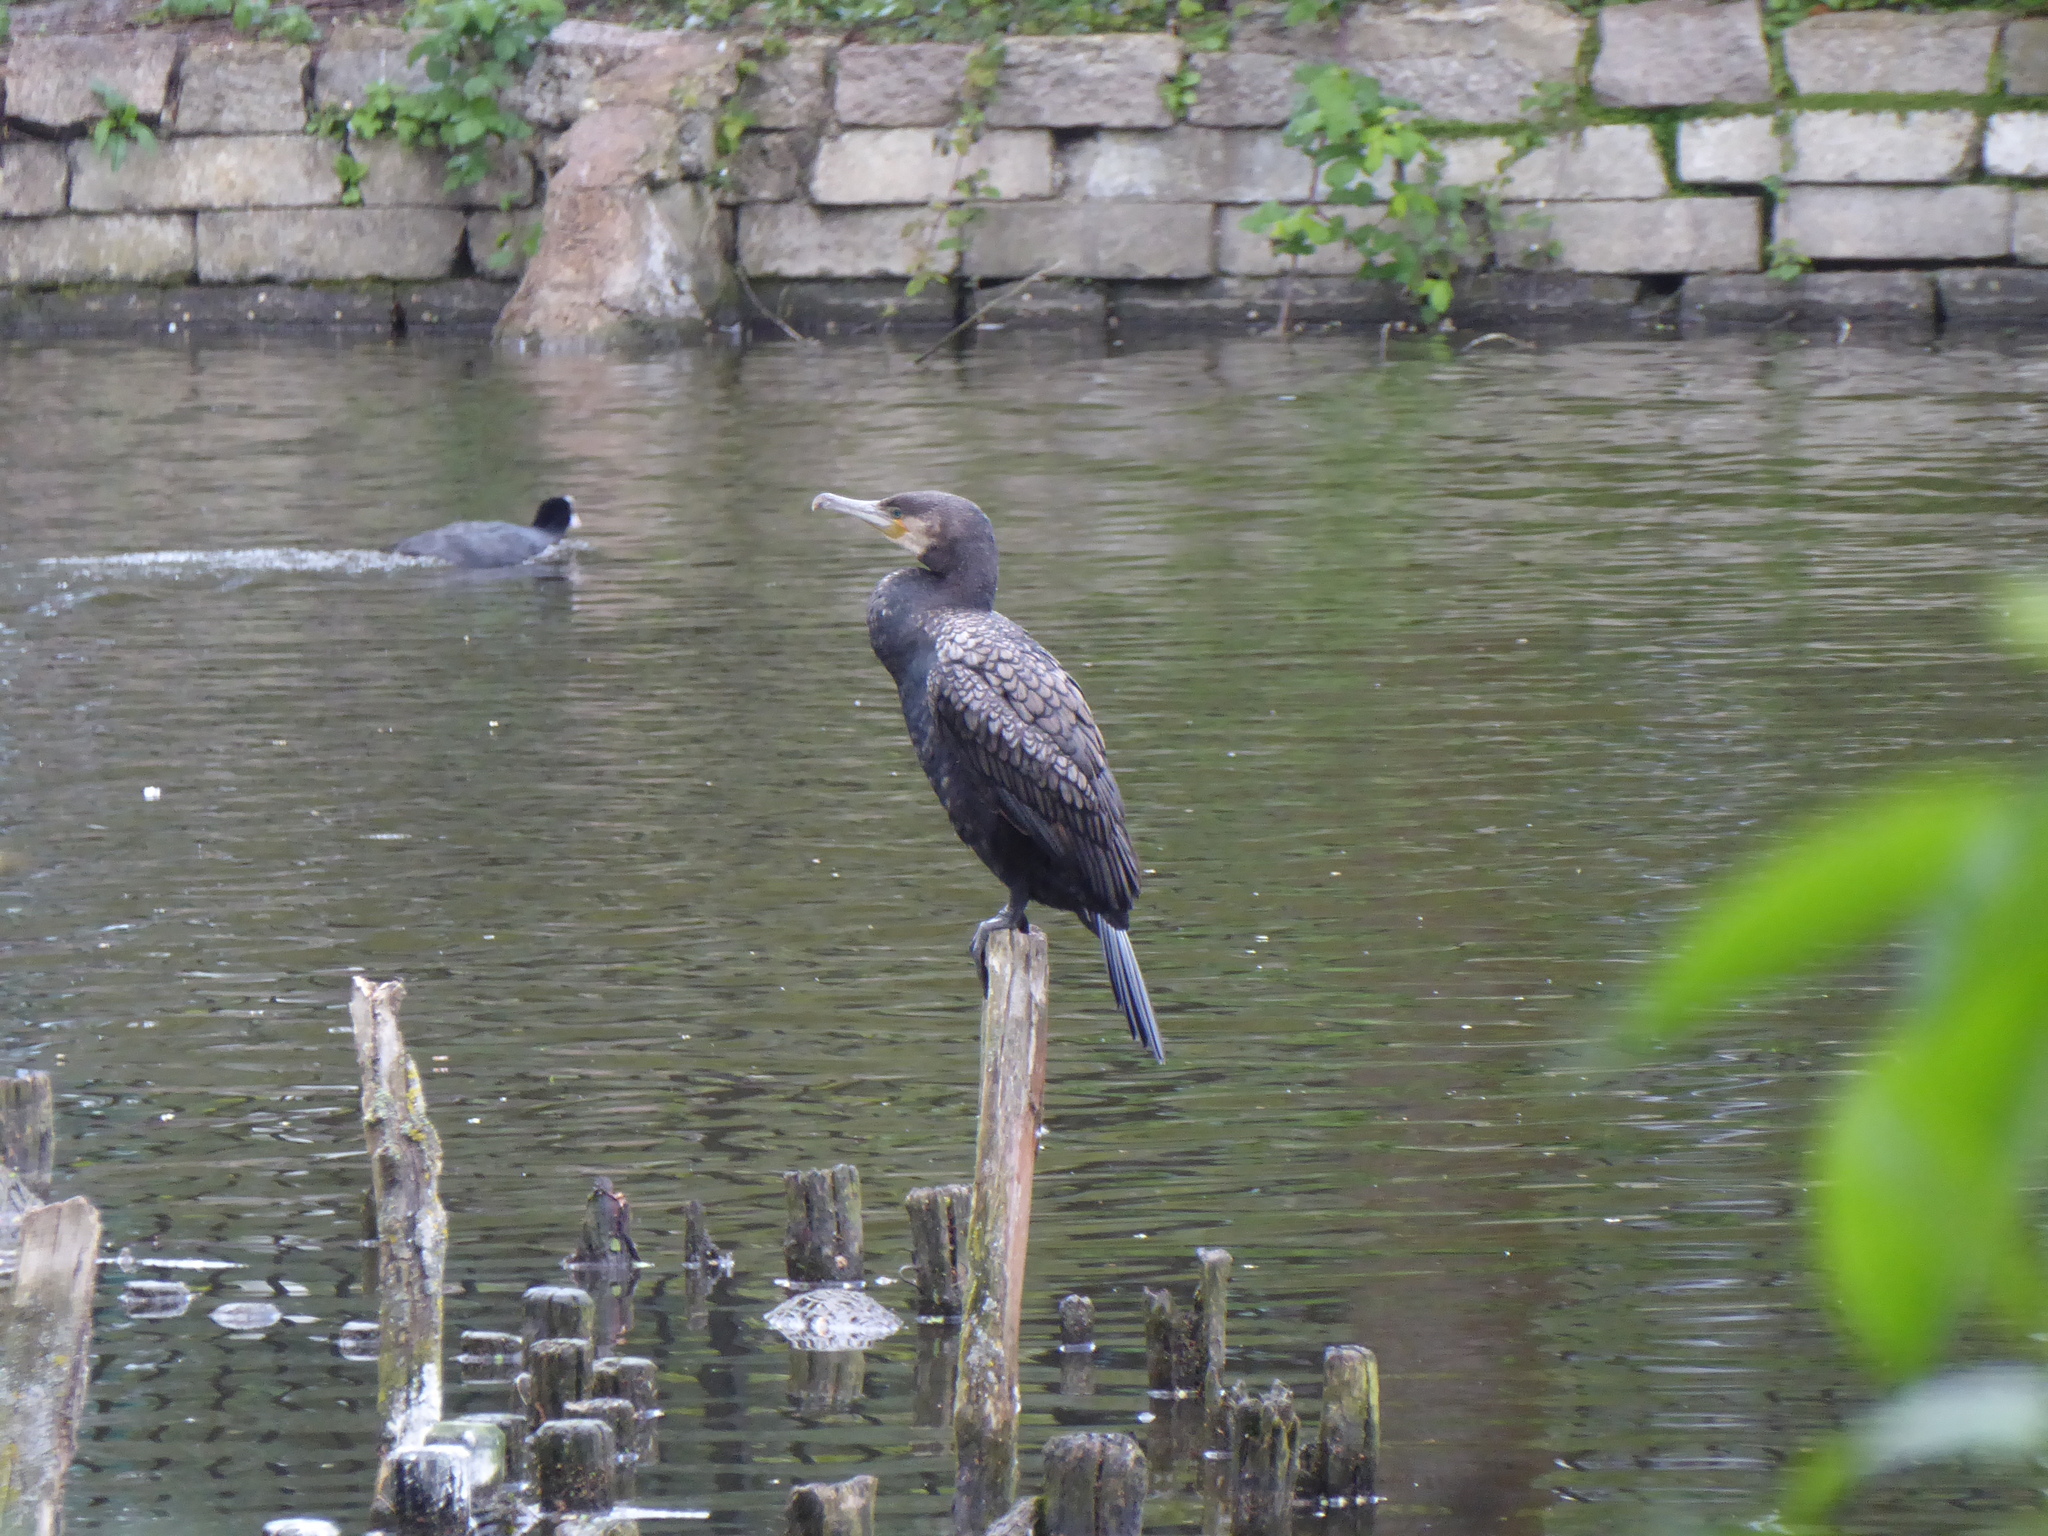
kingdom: Animalia
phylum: Chordata
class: Aves
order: Suliformes
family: Phalacrocoracidae
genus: Phalacrocorax
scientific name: Phalacrocorax carbo
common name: Great cormorant
